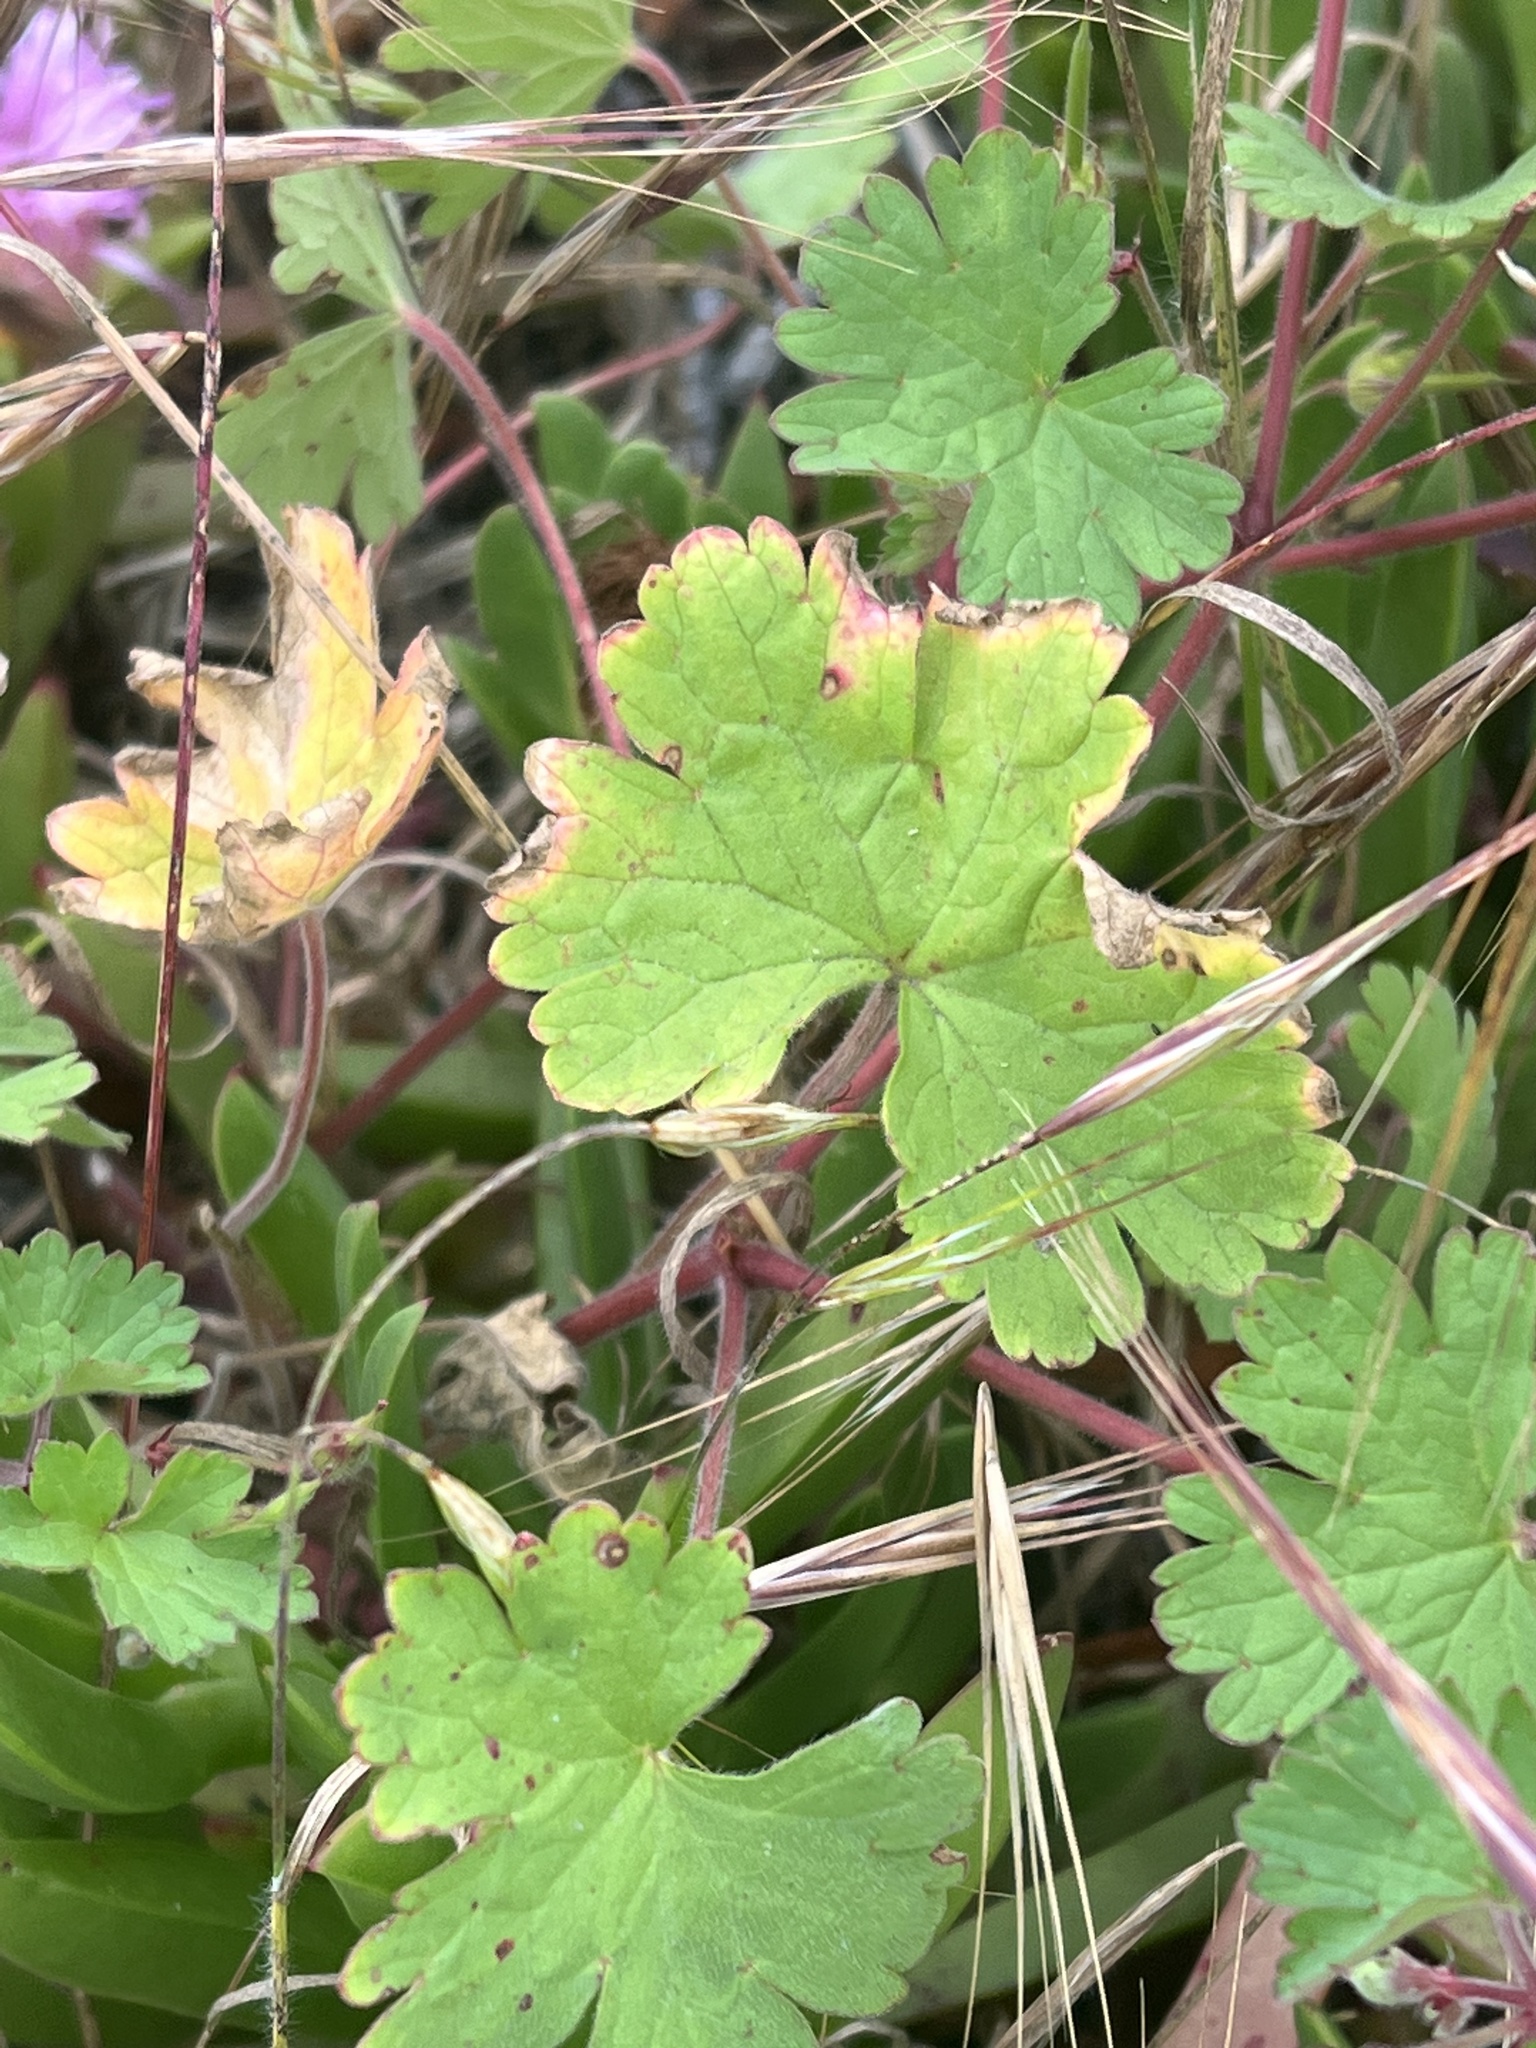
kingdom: Plantae
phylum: Tracheophyta
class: Magnoliopsida
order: Geraniales
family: Geraniaceae
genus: Geranium
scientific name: Geranium rotundifolium
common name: Round-leaved crane's-bill
